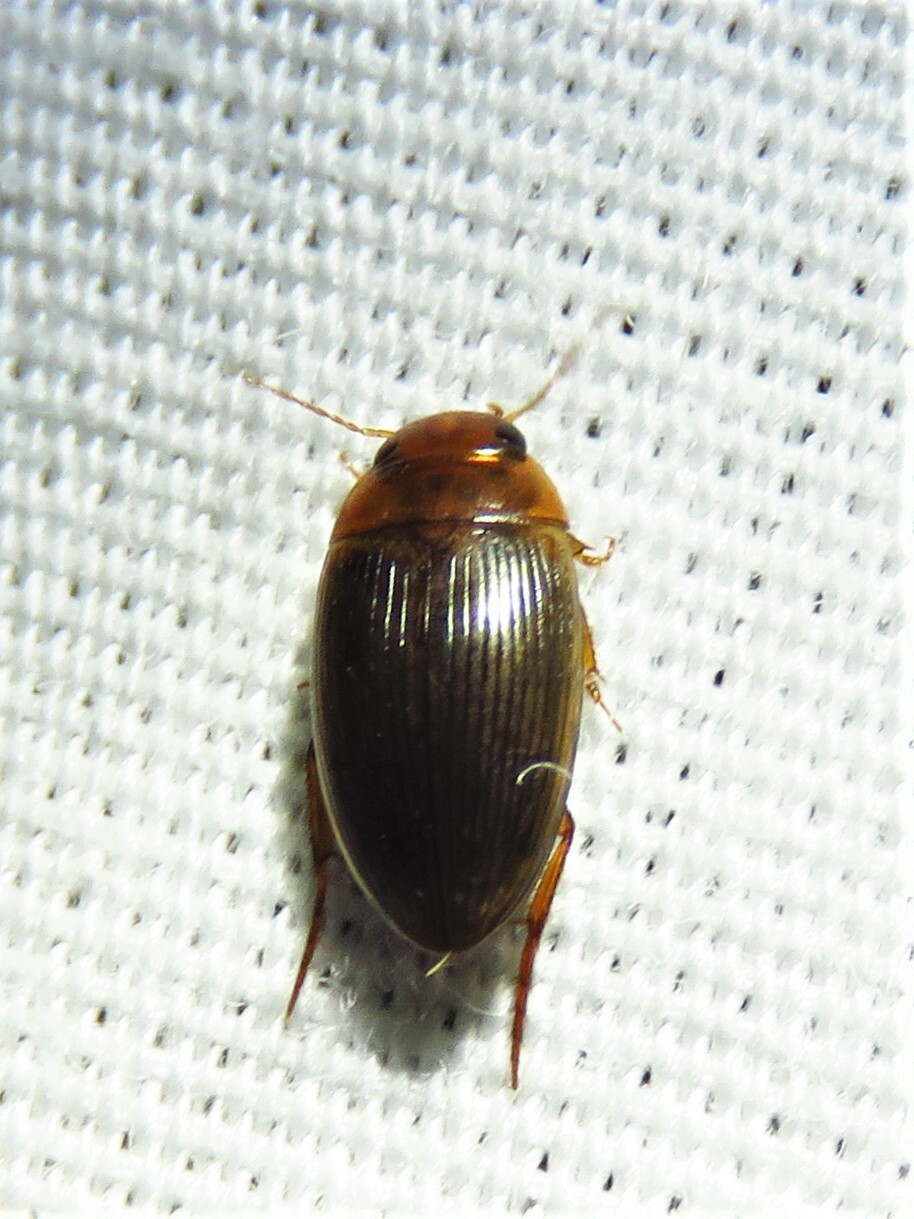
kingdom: Animalia
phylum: Arthropoda
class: Insecta
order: Coleoptera
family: Dytiscidae
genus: Copelatus
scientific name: Copelatus glyphicus
